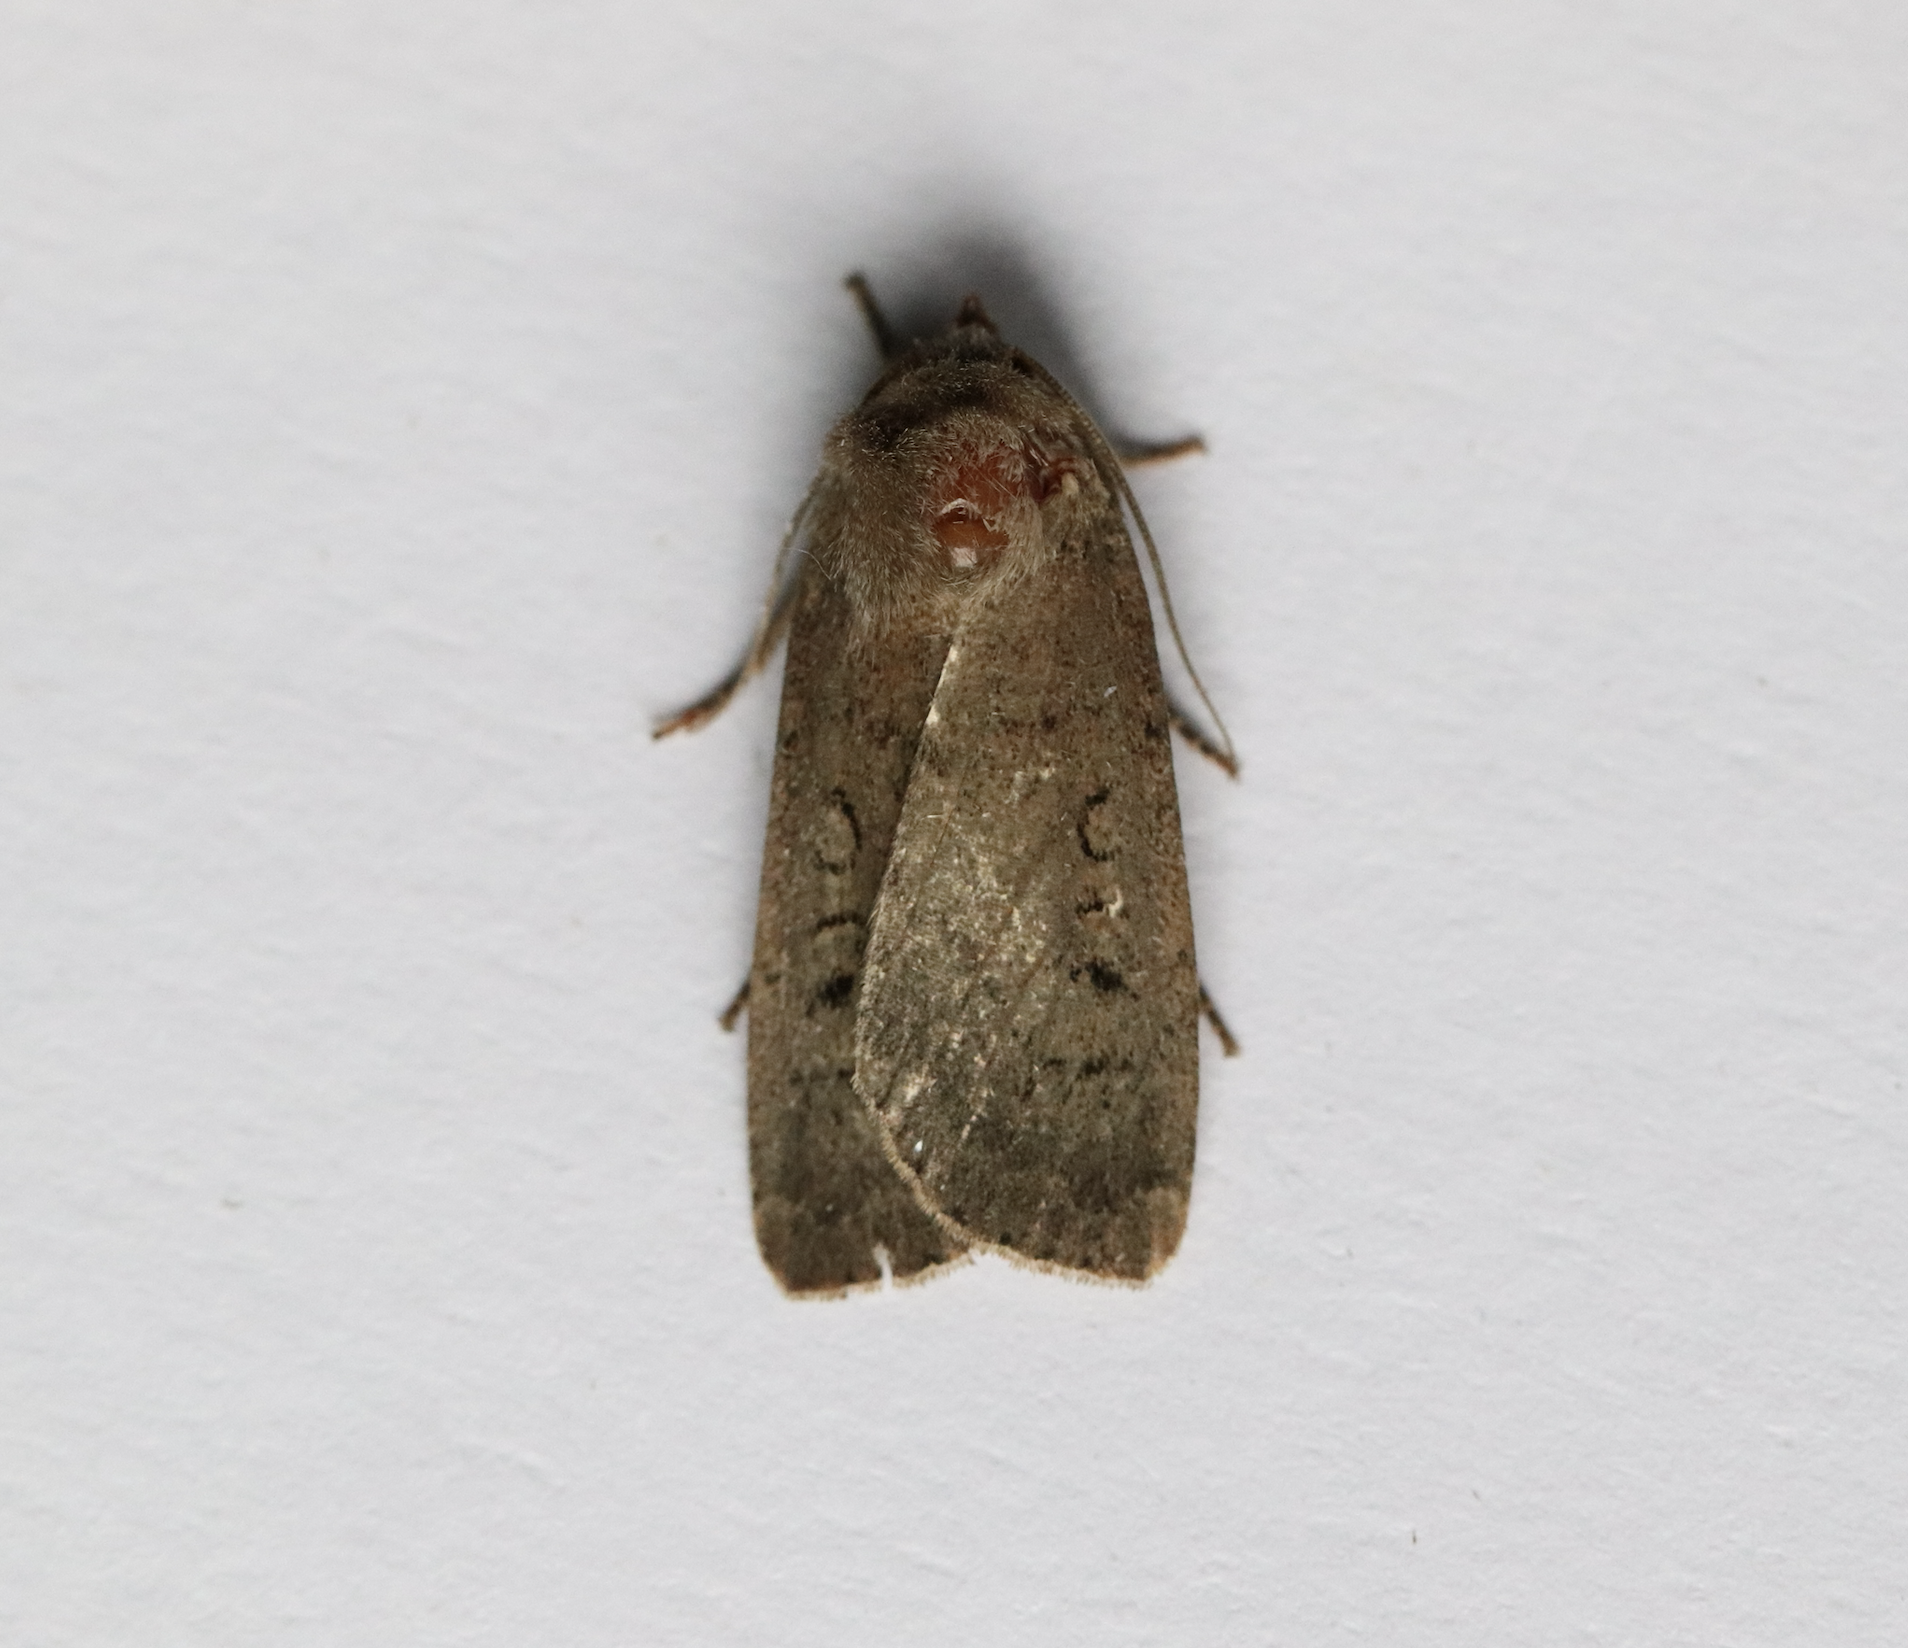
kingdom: Animalia
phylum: Arthropoda
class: Insecta
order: Lepidoptera
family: Noctuidae
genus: Graphiphora
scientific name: Graphiphora augur
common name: Double dart
